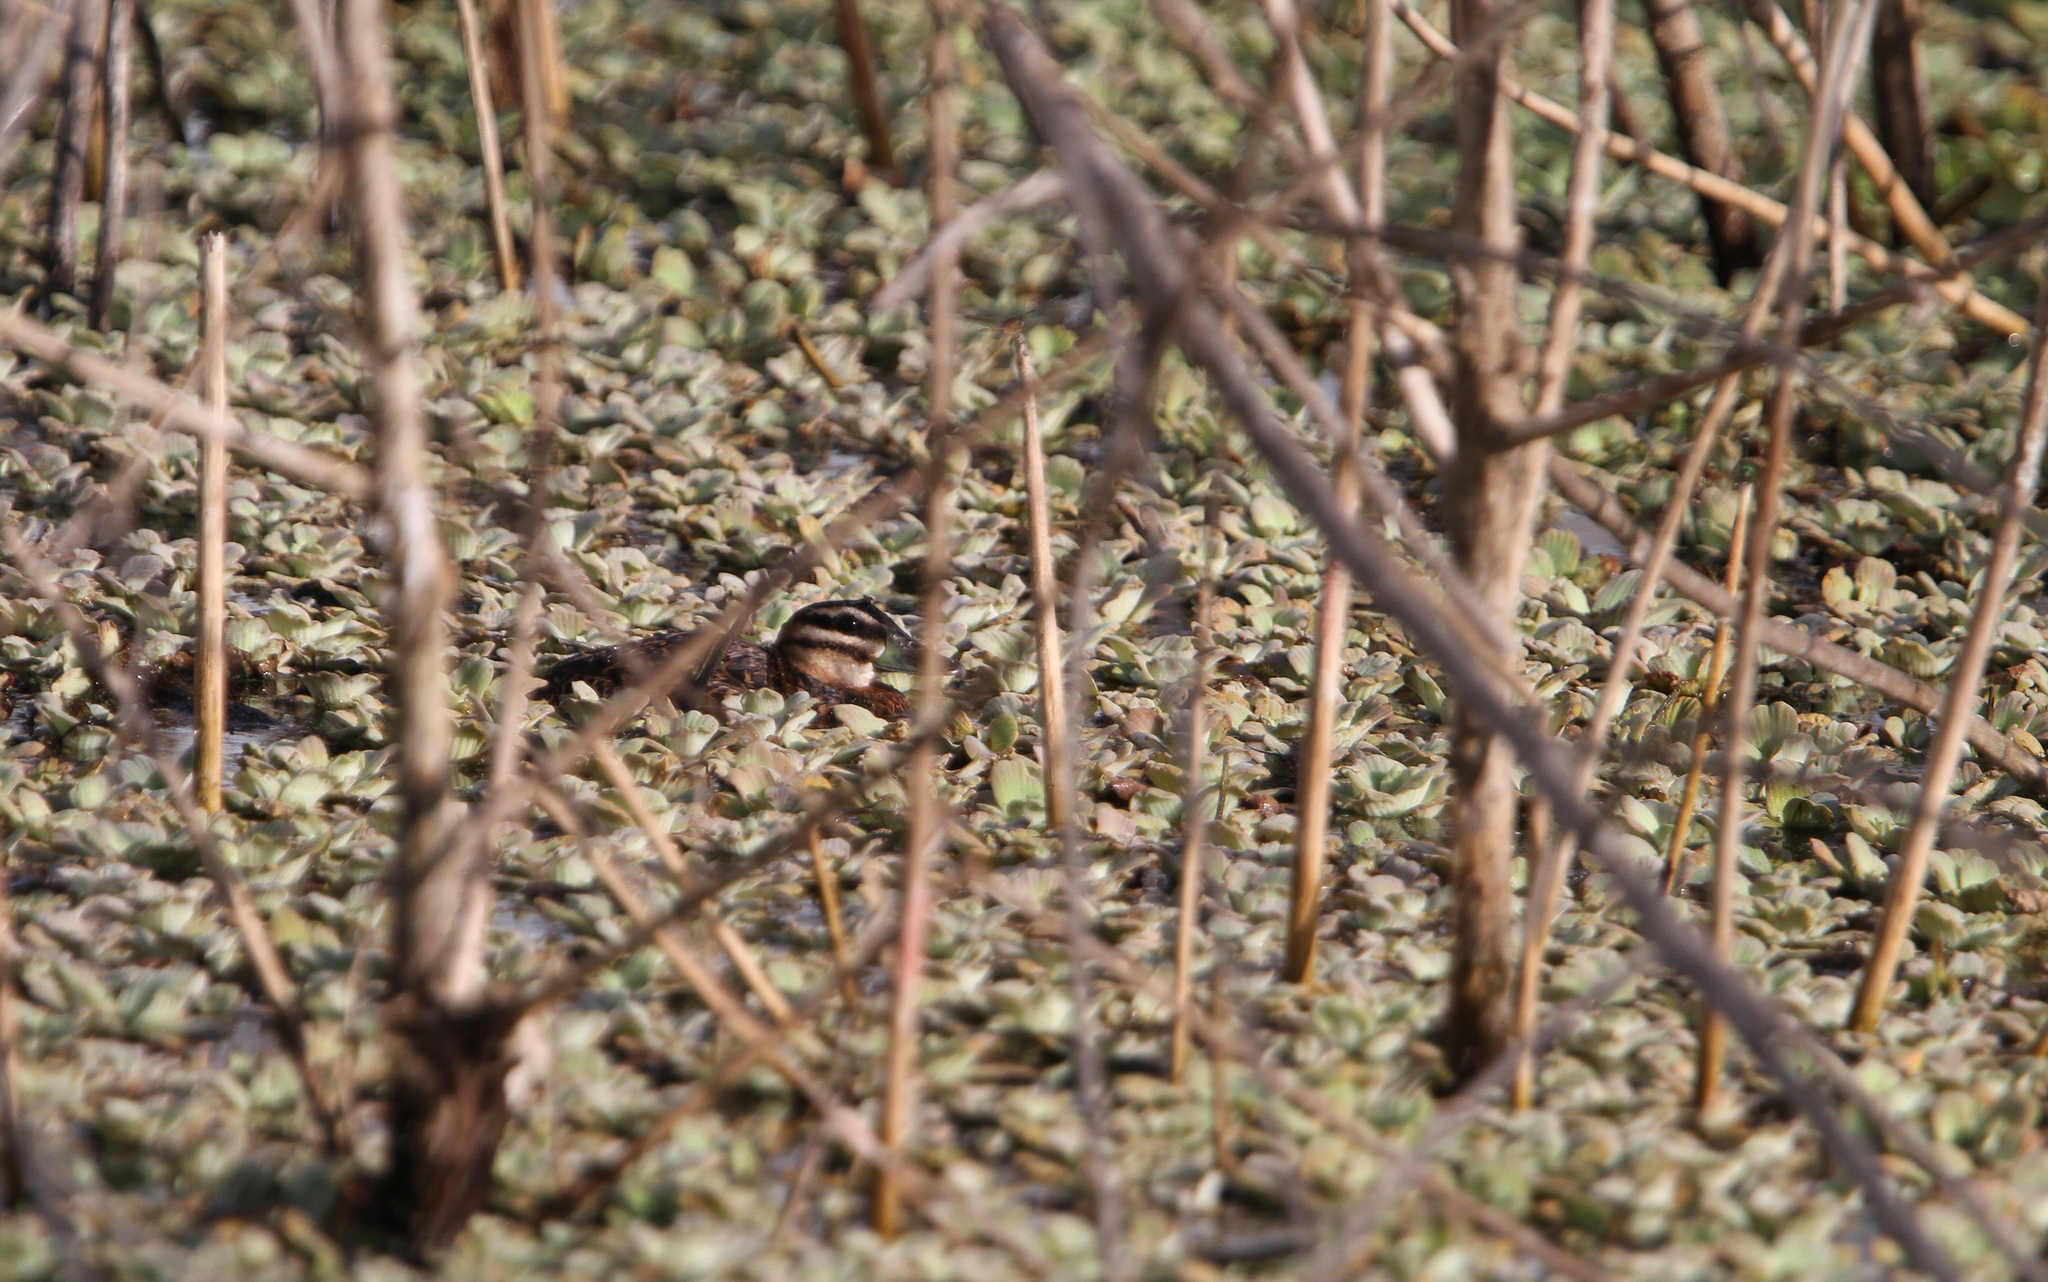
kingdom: Animalia
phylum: Chordata
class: Aves
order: Anseriformes
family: Anatidae
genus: Nomonyx
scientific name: Nomonyx dominicus
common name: Masked duck
